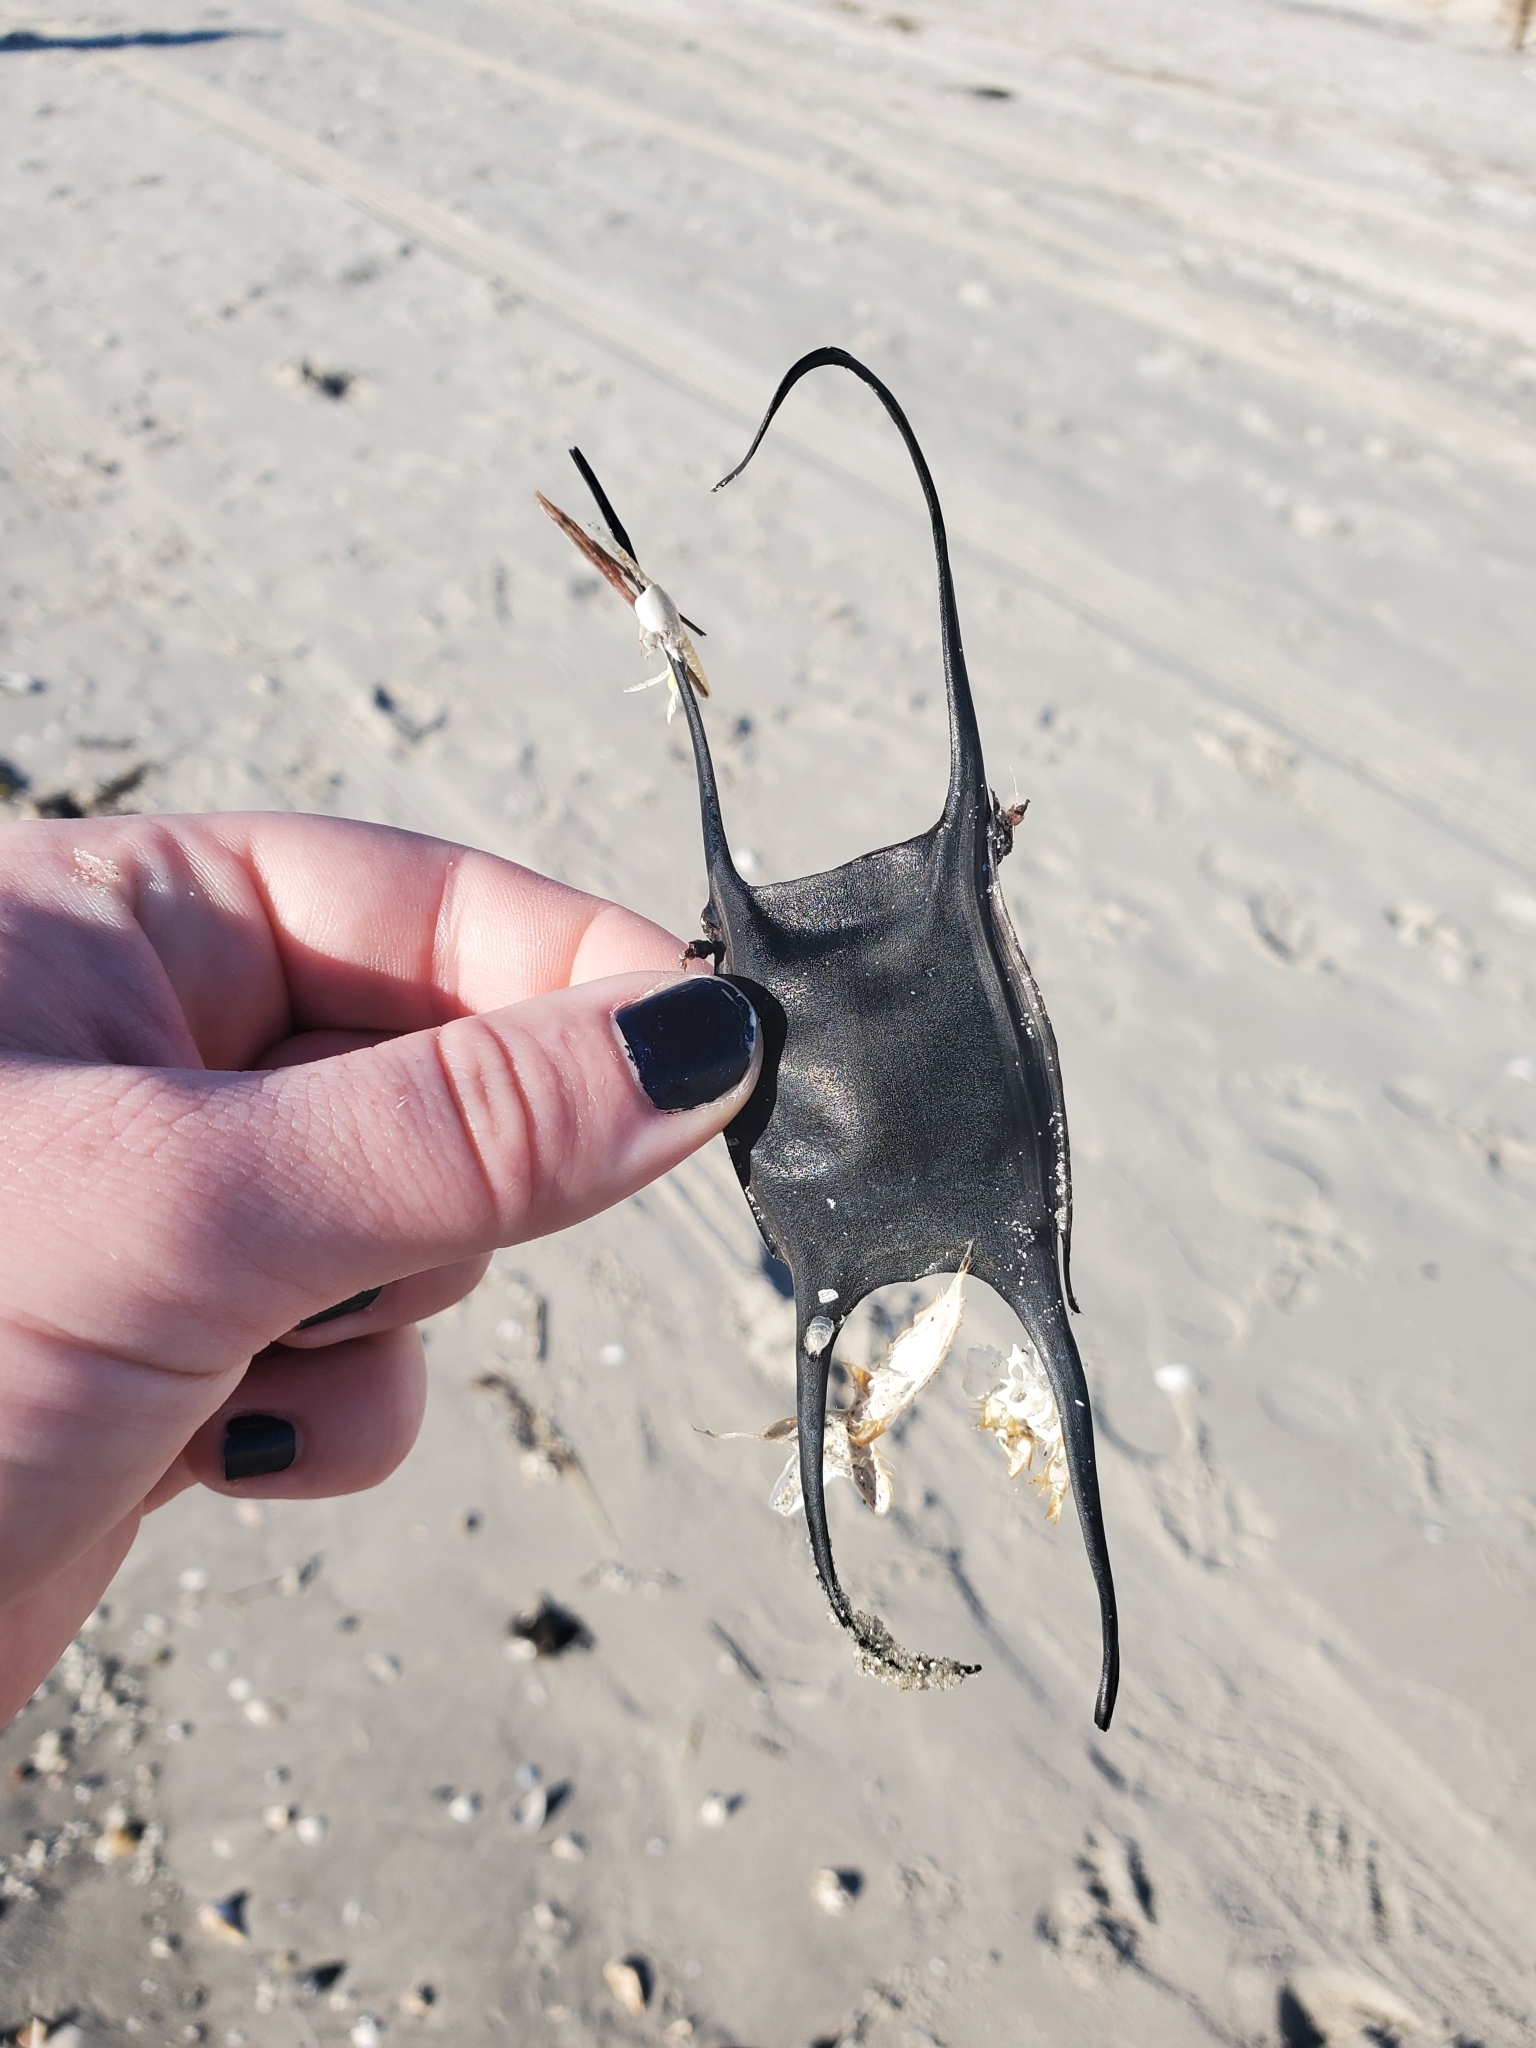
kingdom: Animalia
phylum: Chordata
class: Elasmobranchii
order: Rajiformes
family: Rajidae
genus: Leucoraja
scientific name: Leucoraja erinacea
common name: Little skate
